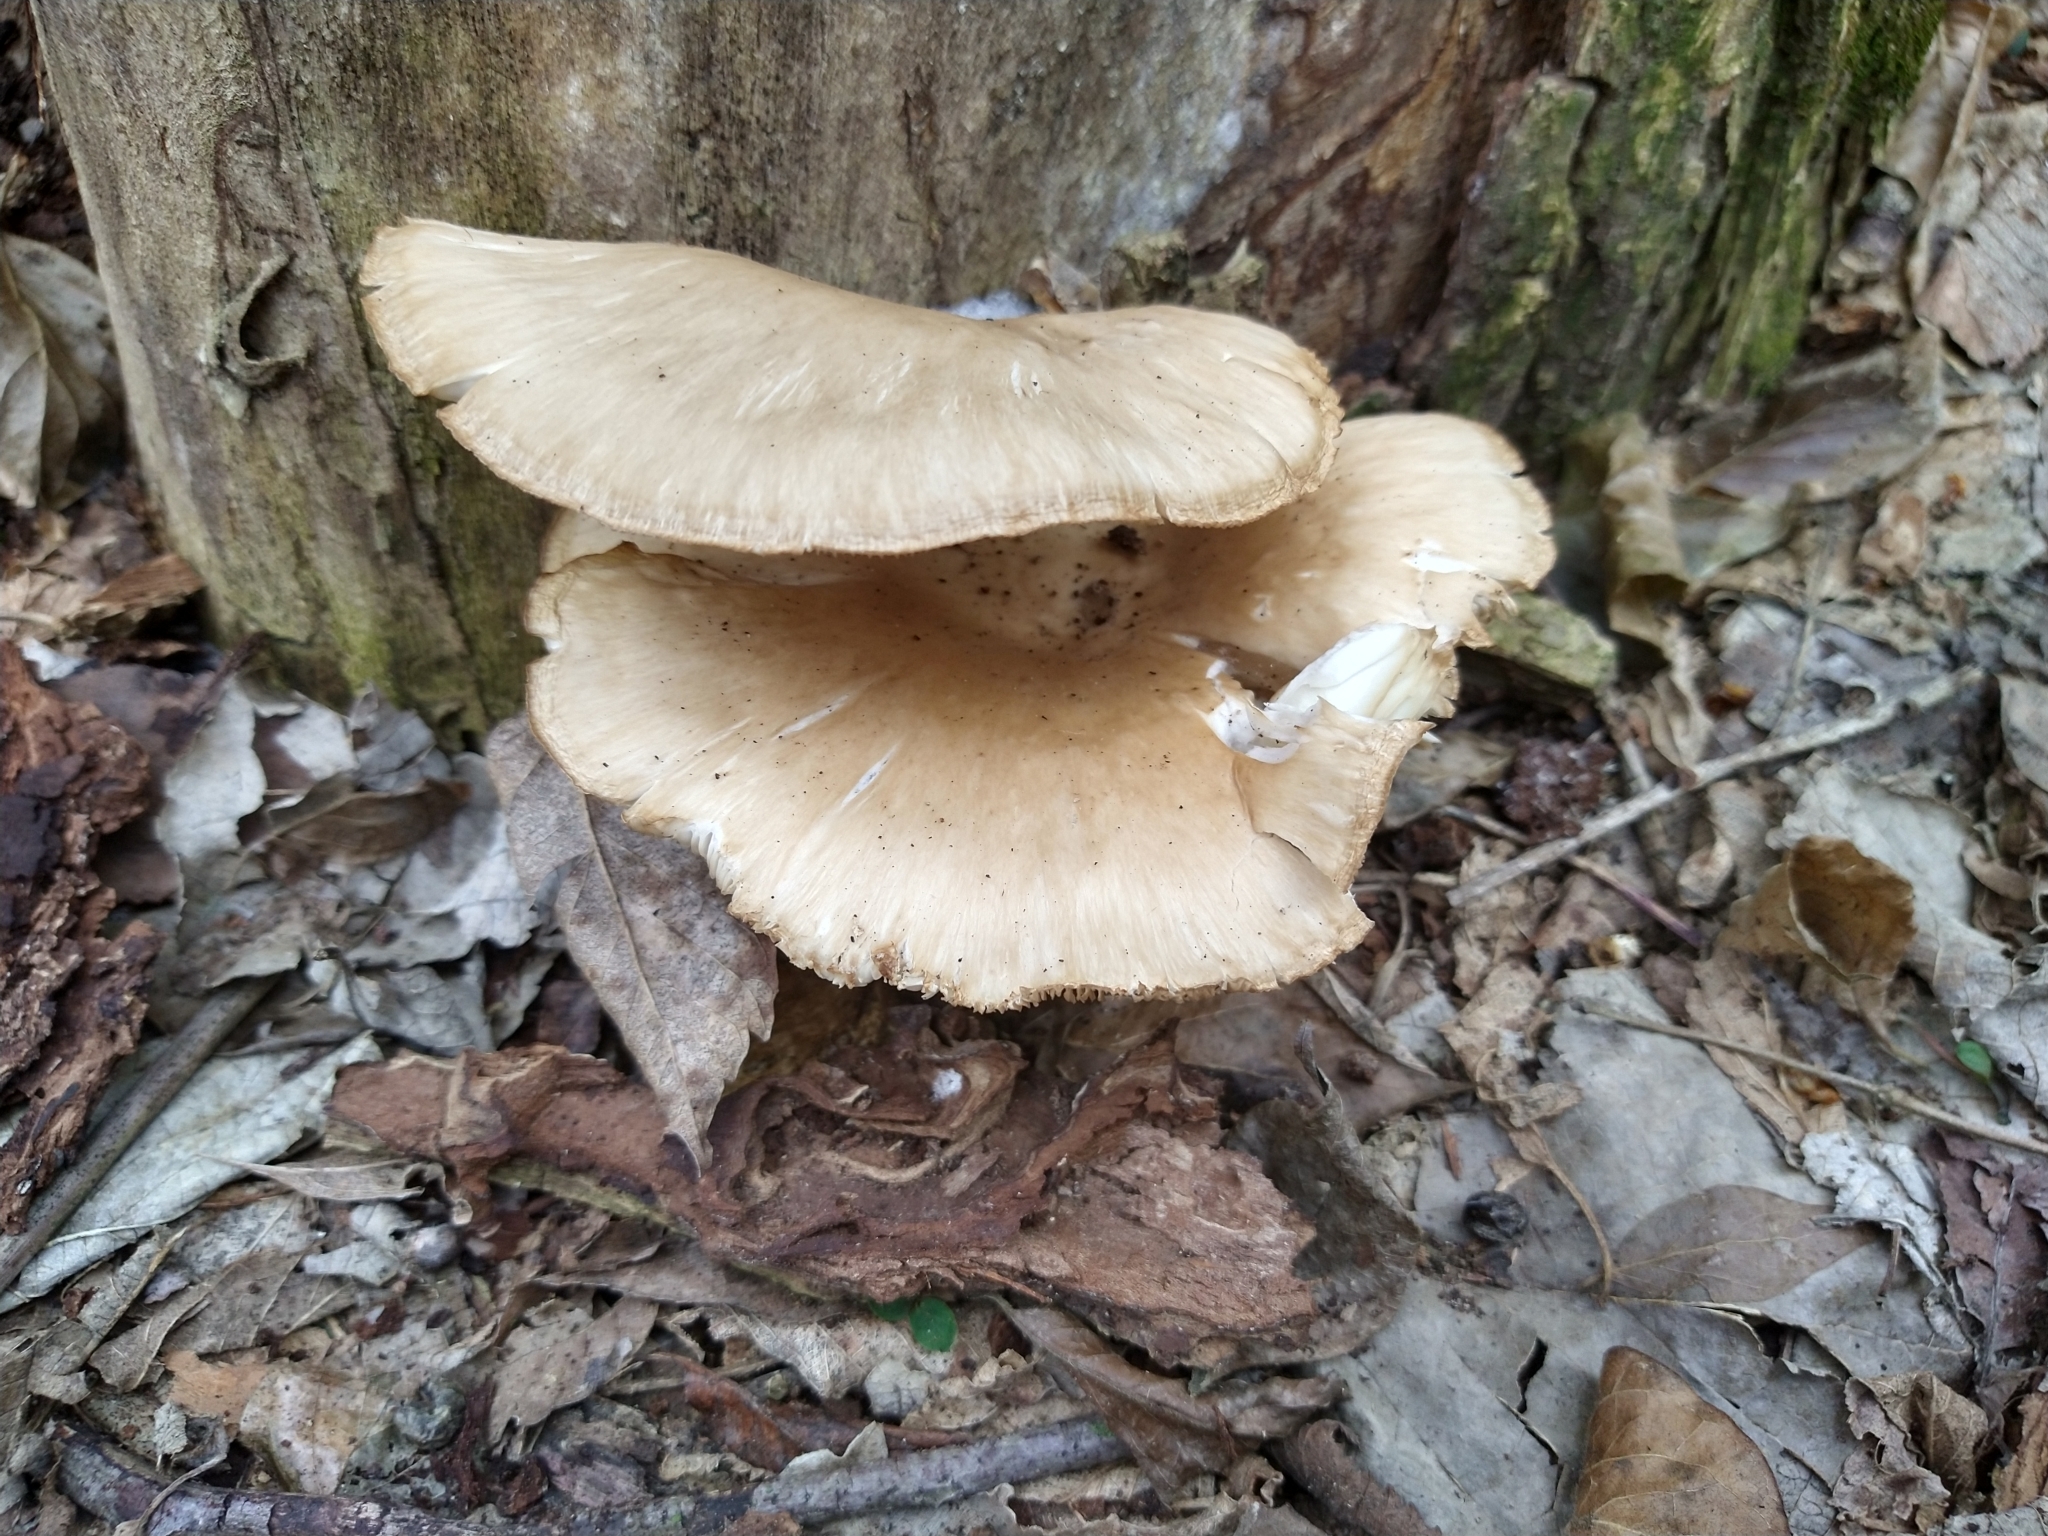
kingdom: Fungi
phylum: Basidiomycota
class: Agaricomycetes
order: Agaricales
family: Pleurotaceae
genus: Pleurotus
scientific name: Pleurotus ostreatus
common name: Oyster mushroom
